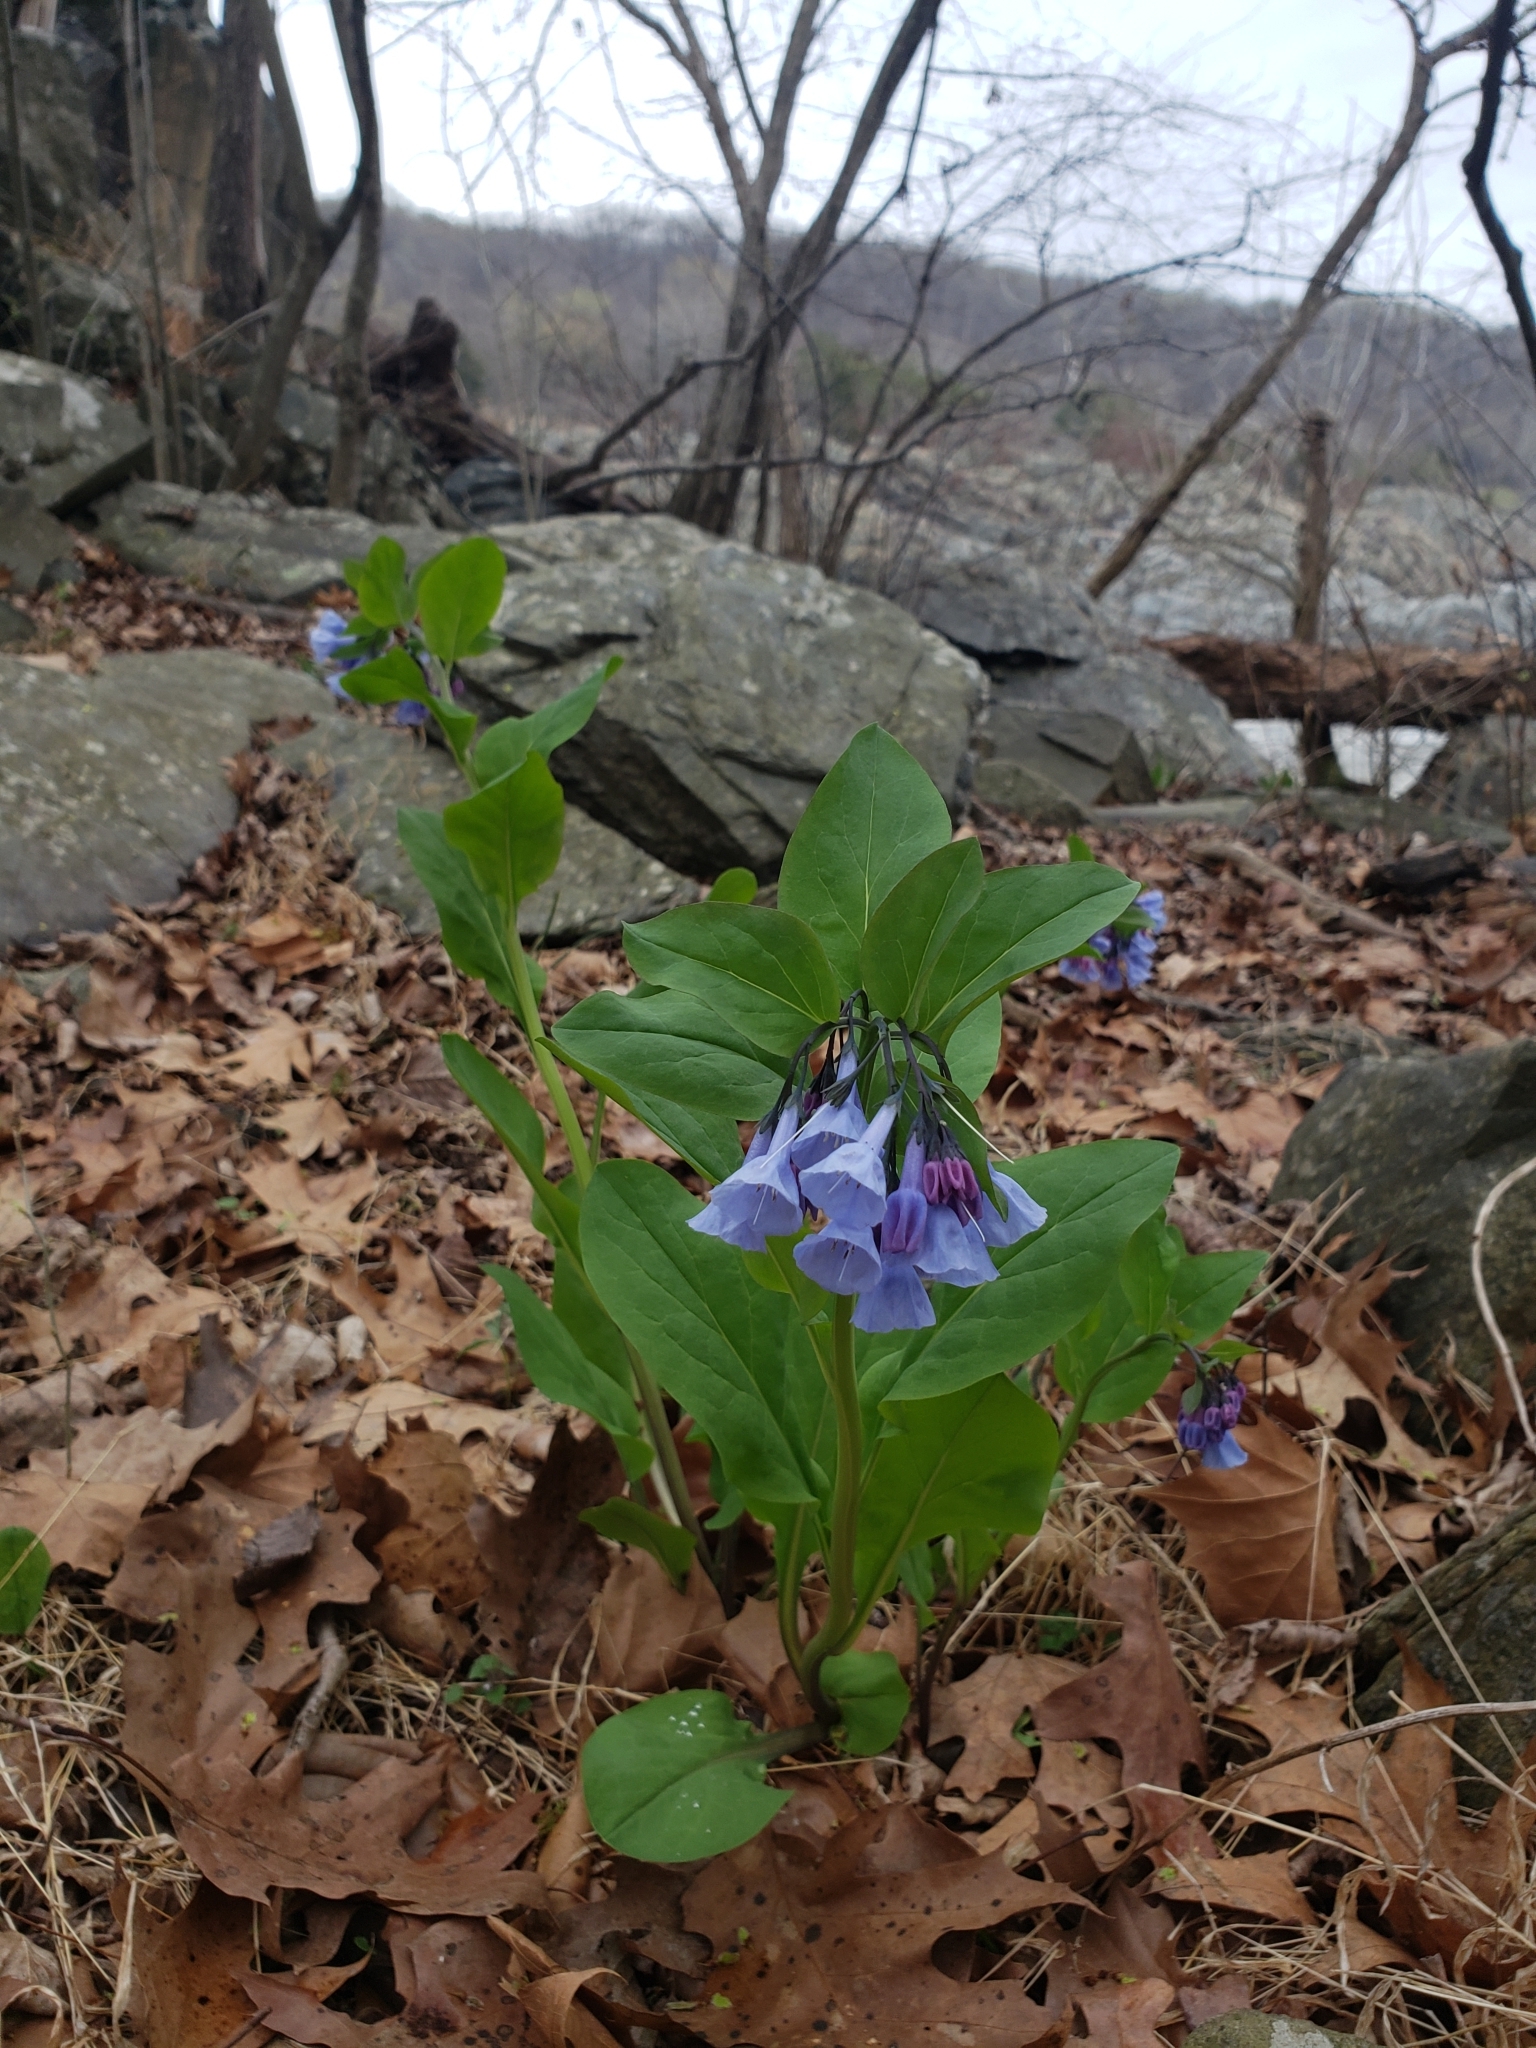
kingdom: Plantae
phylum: Tracheophyta
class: Magnoliopsida
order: Boraginales
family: Boraginaceae
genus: Mertensia
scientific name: Mertensia virginica
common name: Virginia bluebells
